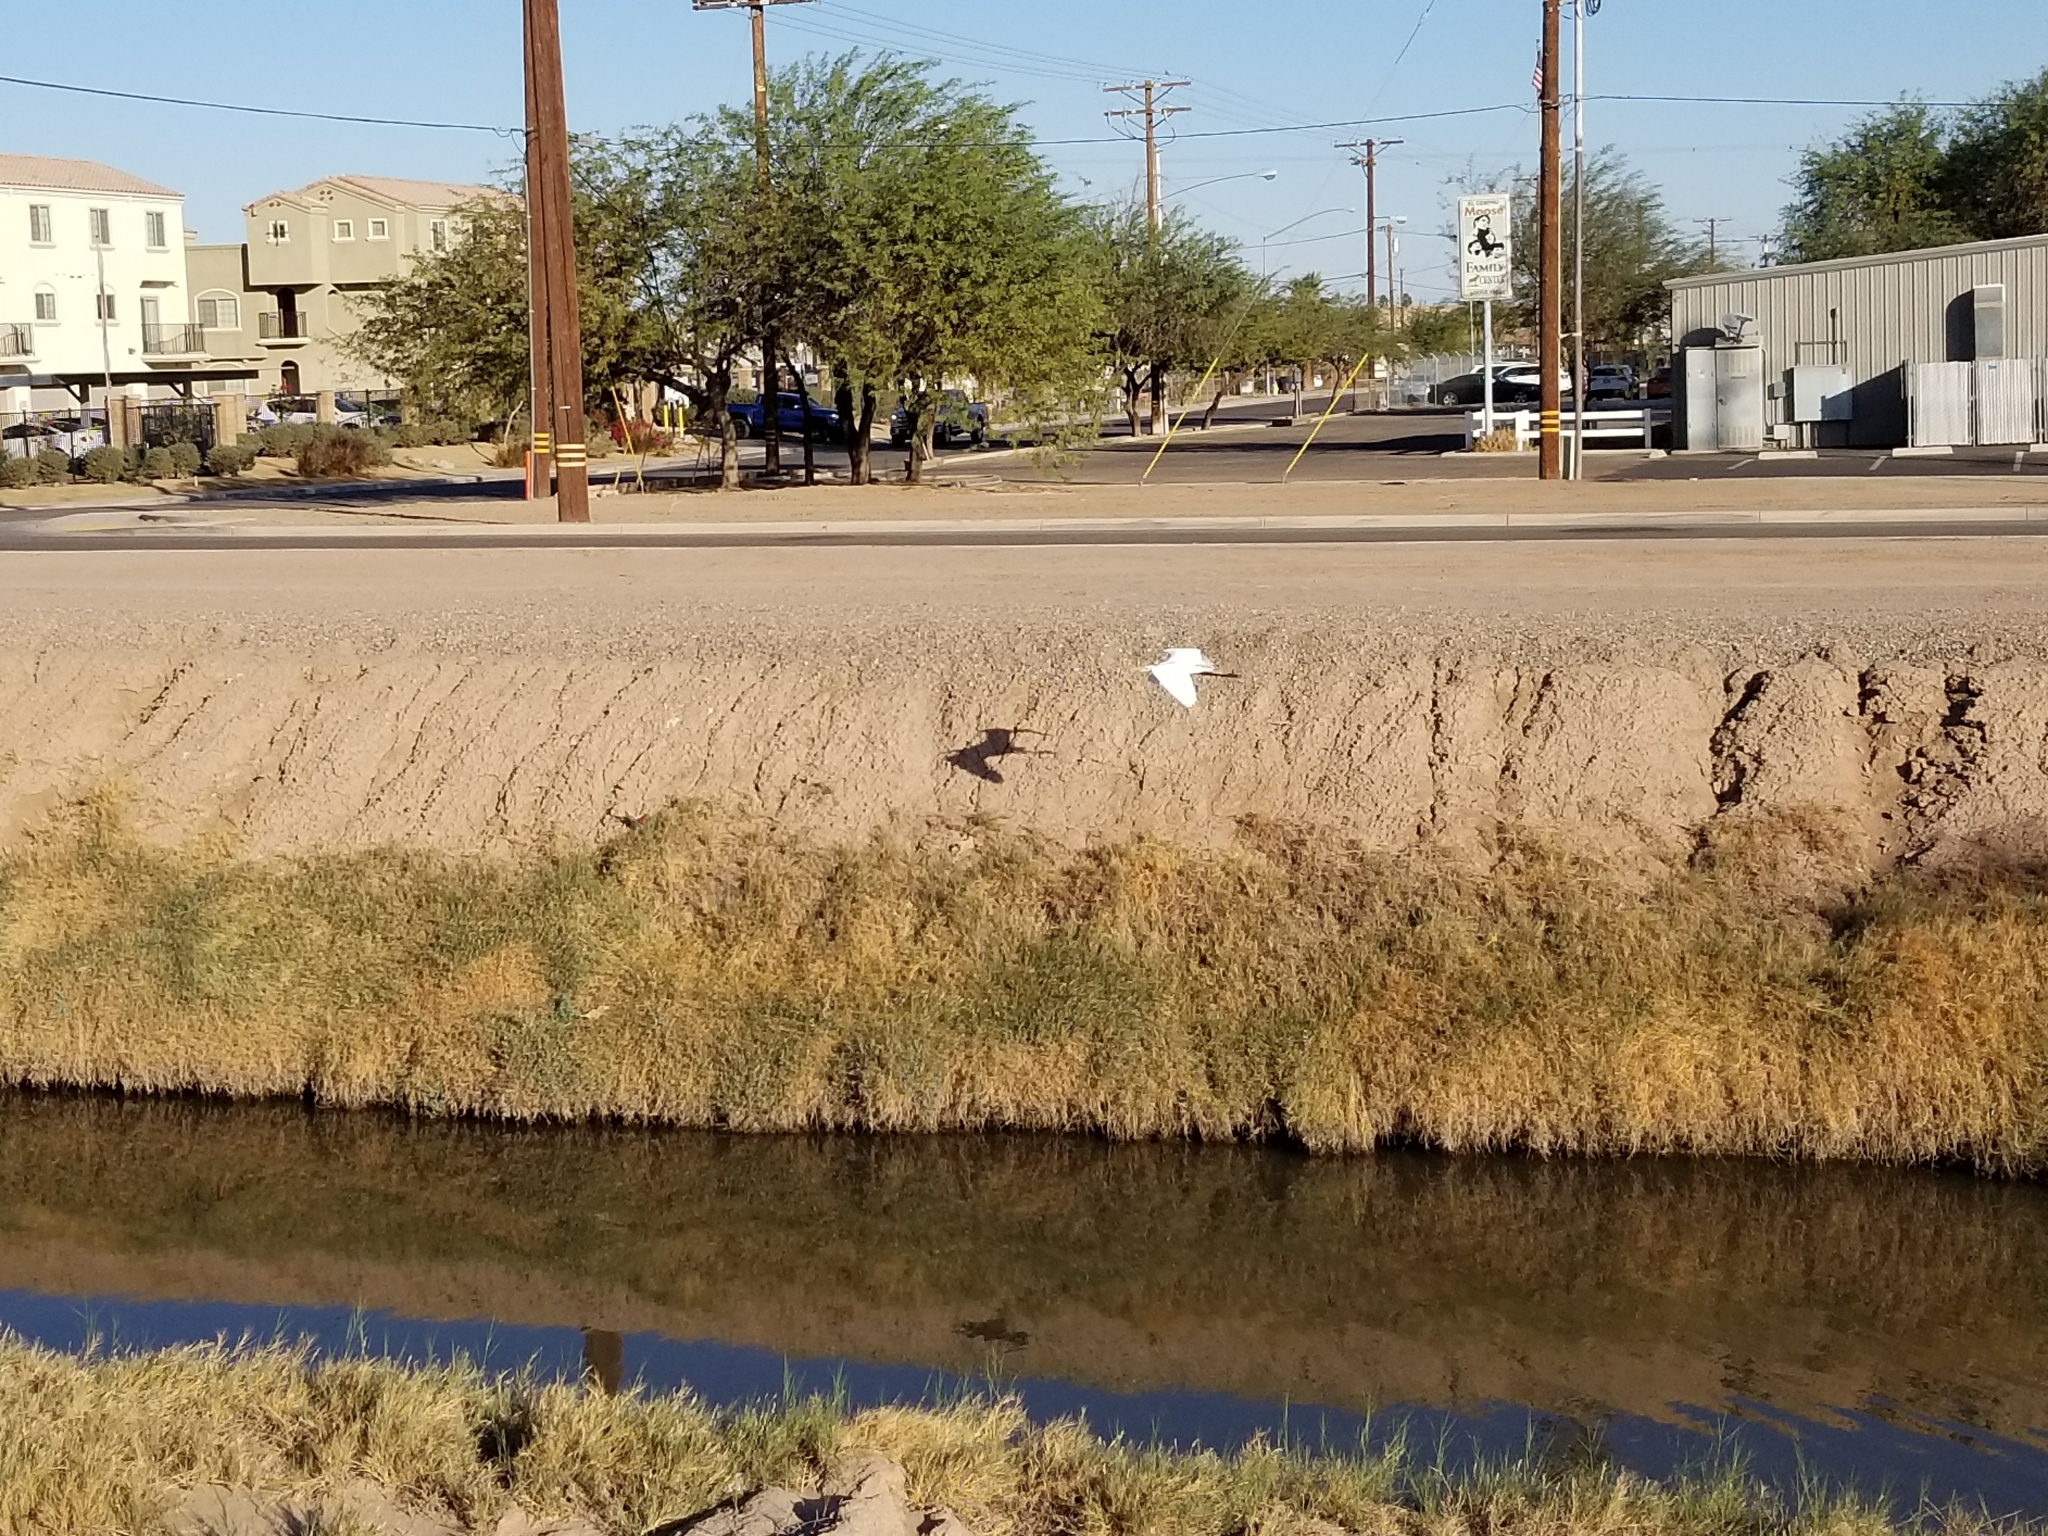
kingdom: Animalia
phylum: Chordata
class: Aves
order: Pelecaniformes
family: Ardeidae
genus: Ardea
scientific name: Ardea alba
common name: Great egret
